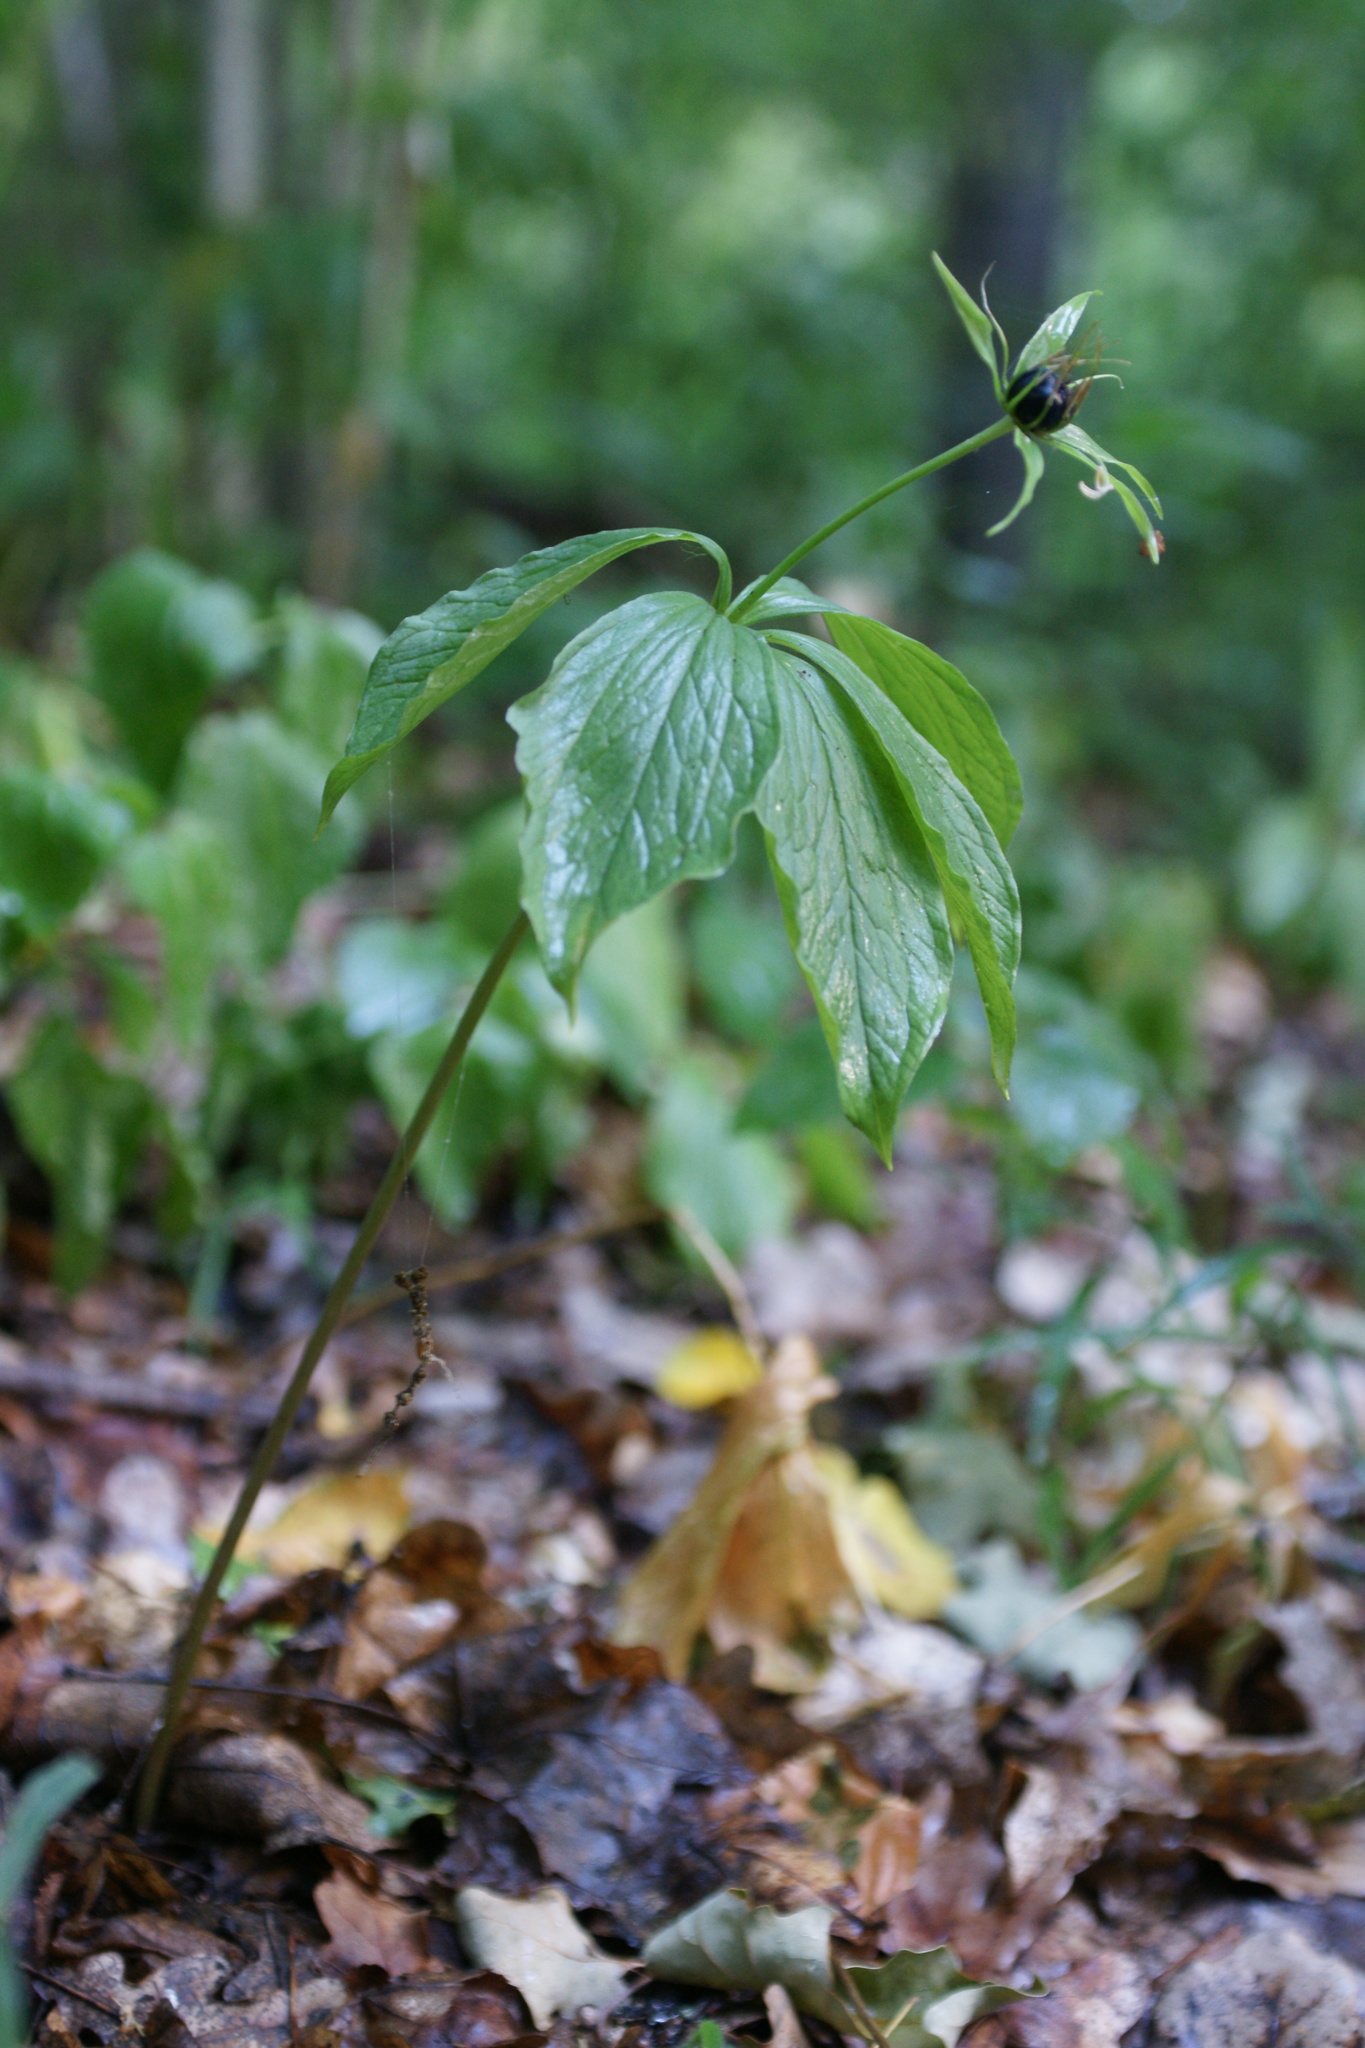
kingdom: Plantae
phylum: Tracheophyta
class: Liliopsida
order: Liliales
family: Melanthiaceae
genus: Paris
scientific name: Paris quadrifolia
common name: Herb-paris
